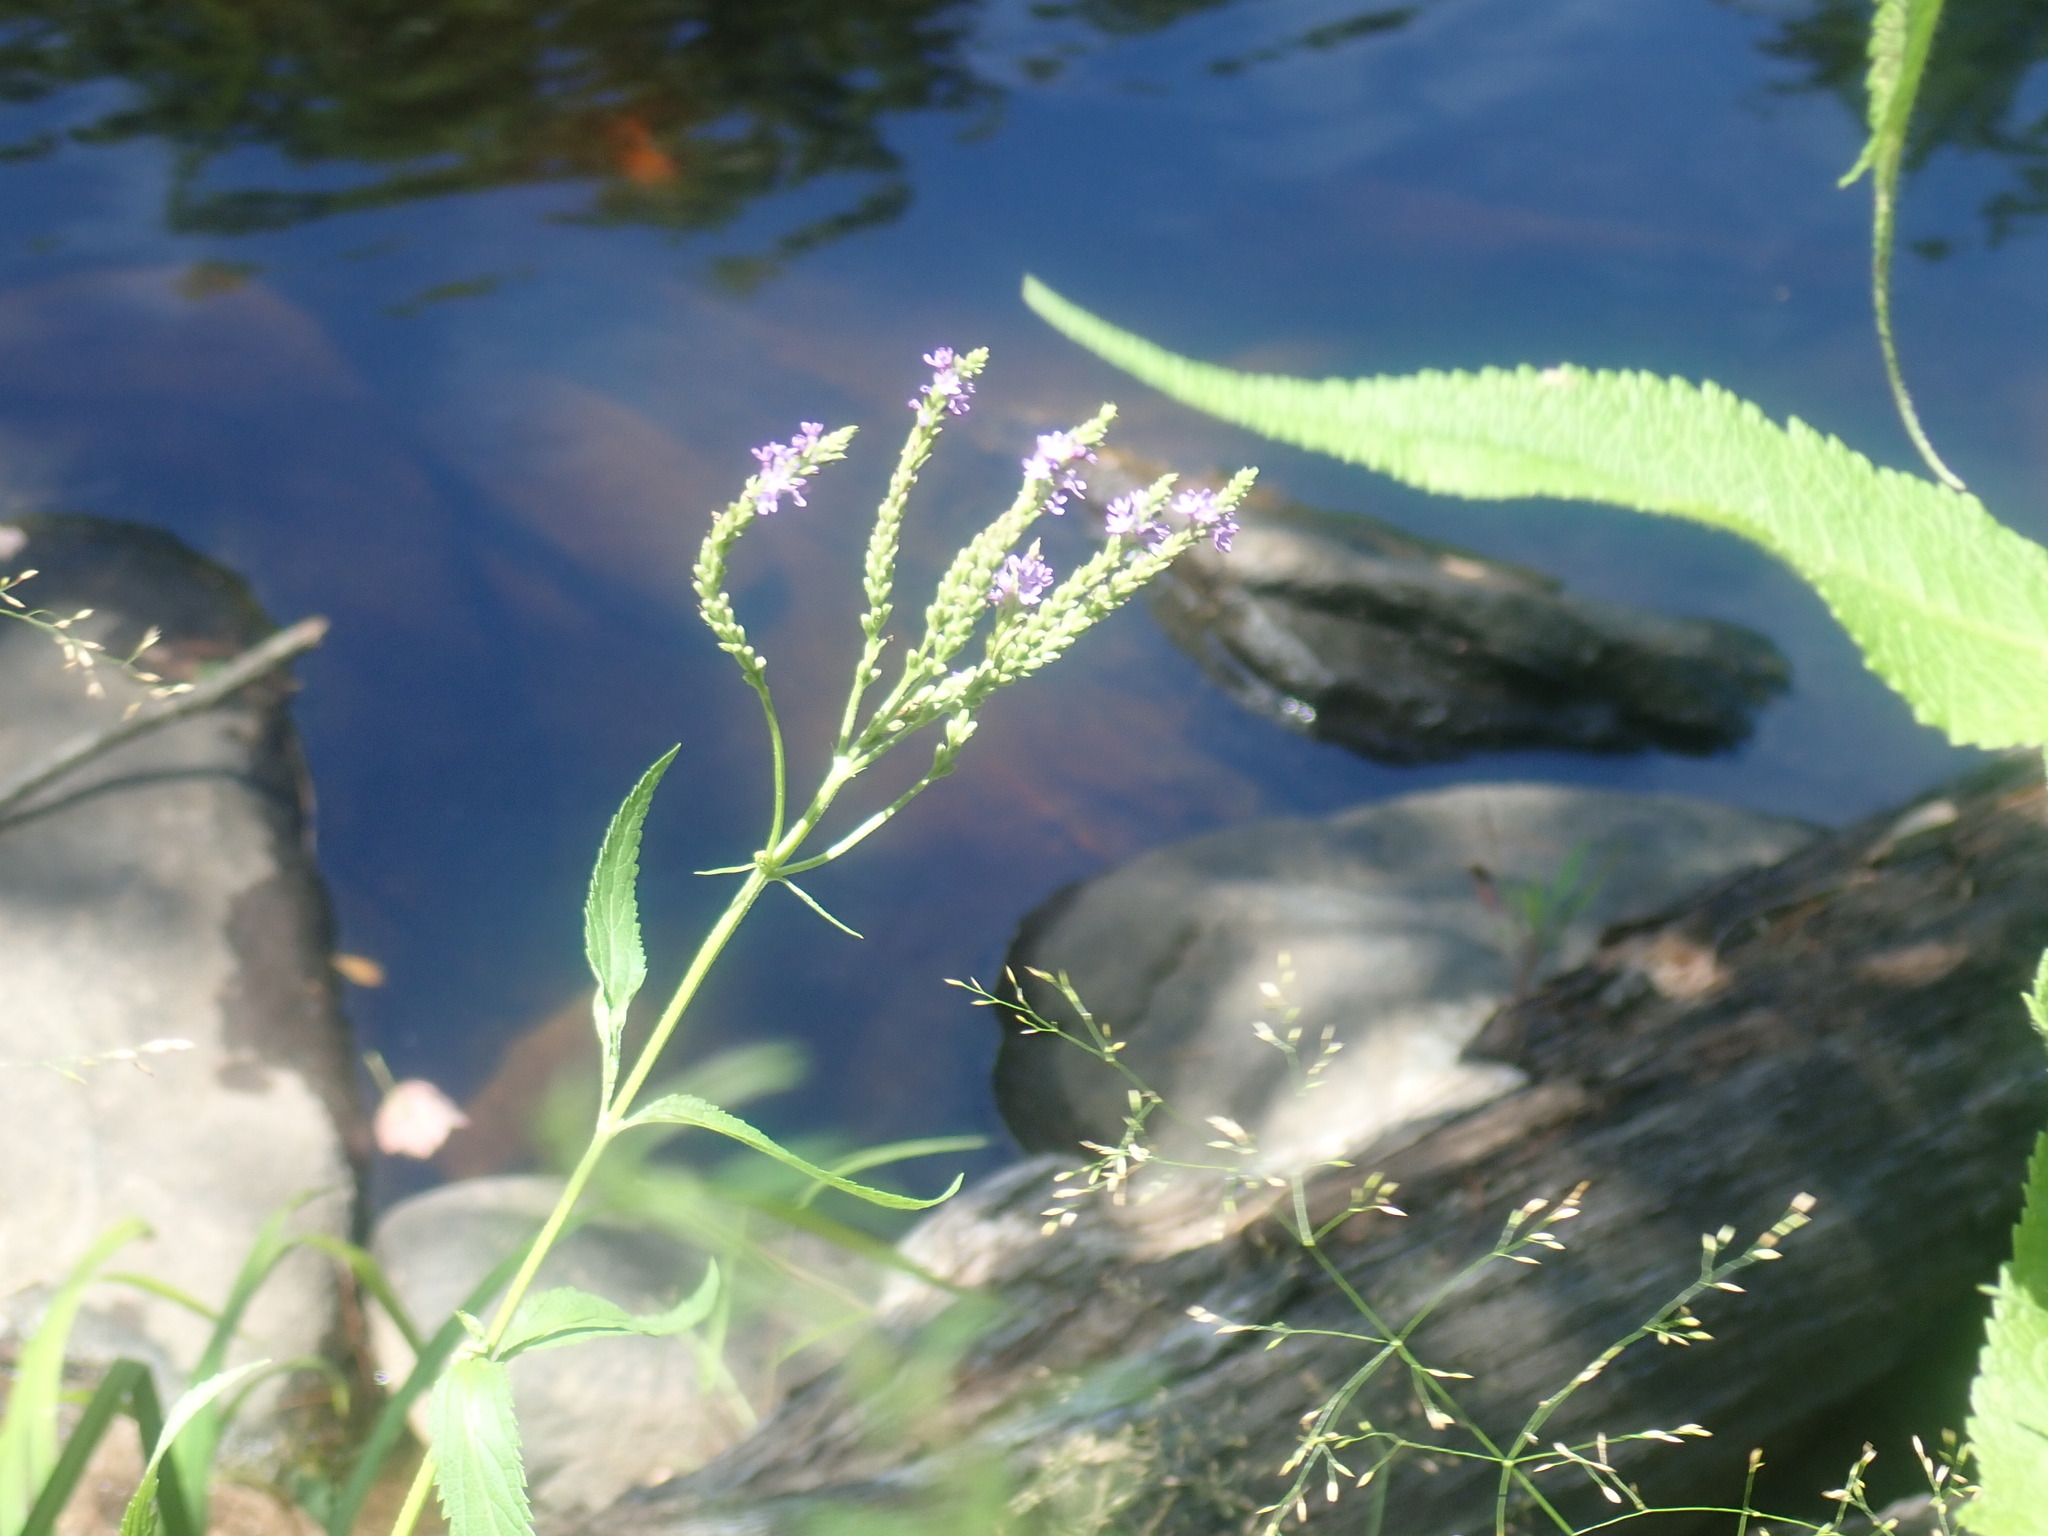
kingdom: Plantae
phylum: Tracheophyta
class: Magnoliopsida
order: Lamiales
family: Verbenaceae
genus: Verbena
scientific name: Verbena hastata
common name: American blue vervain
